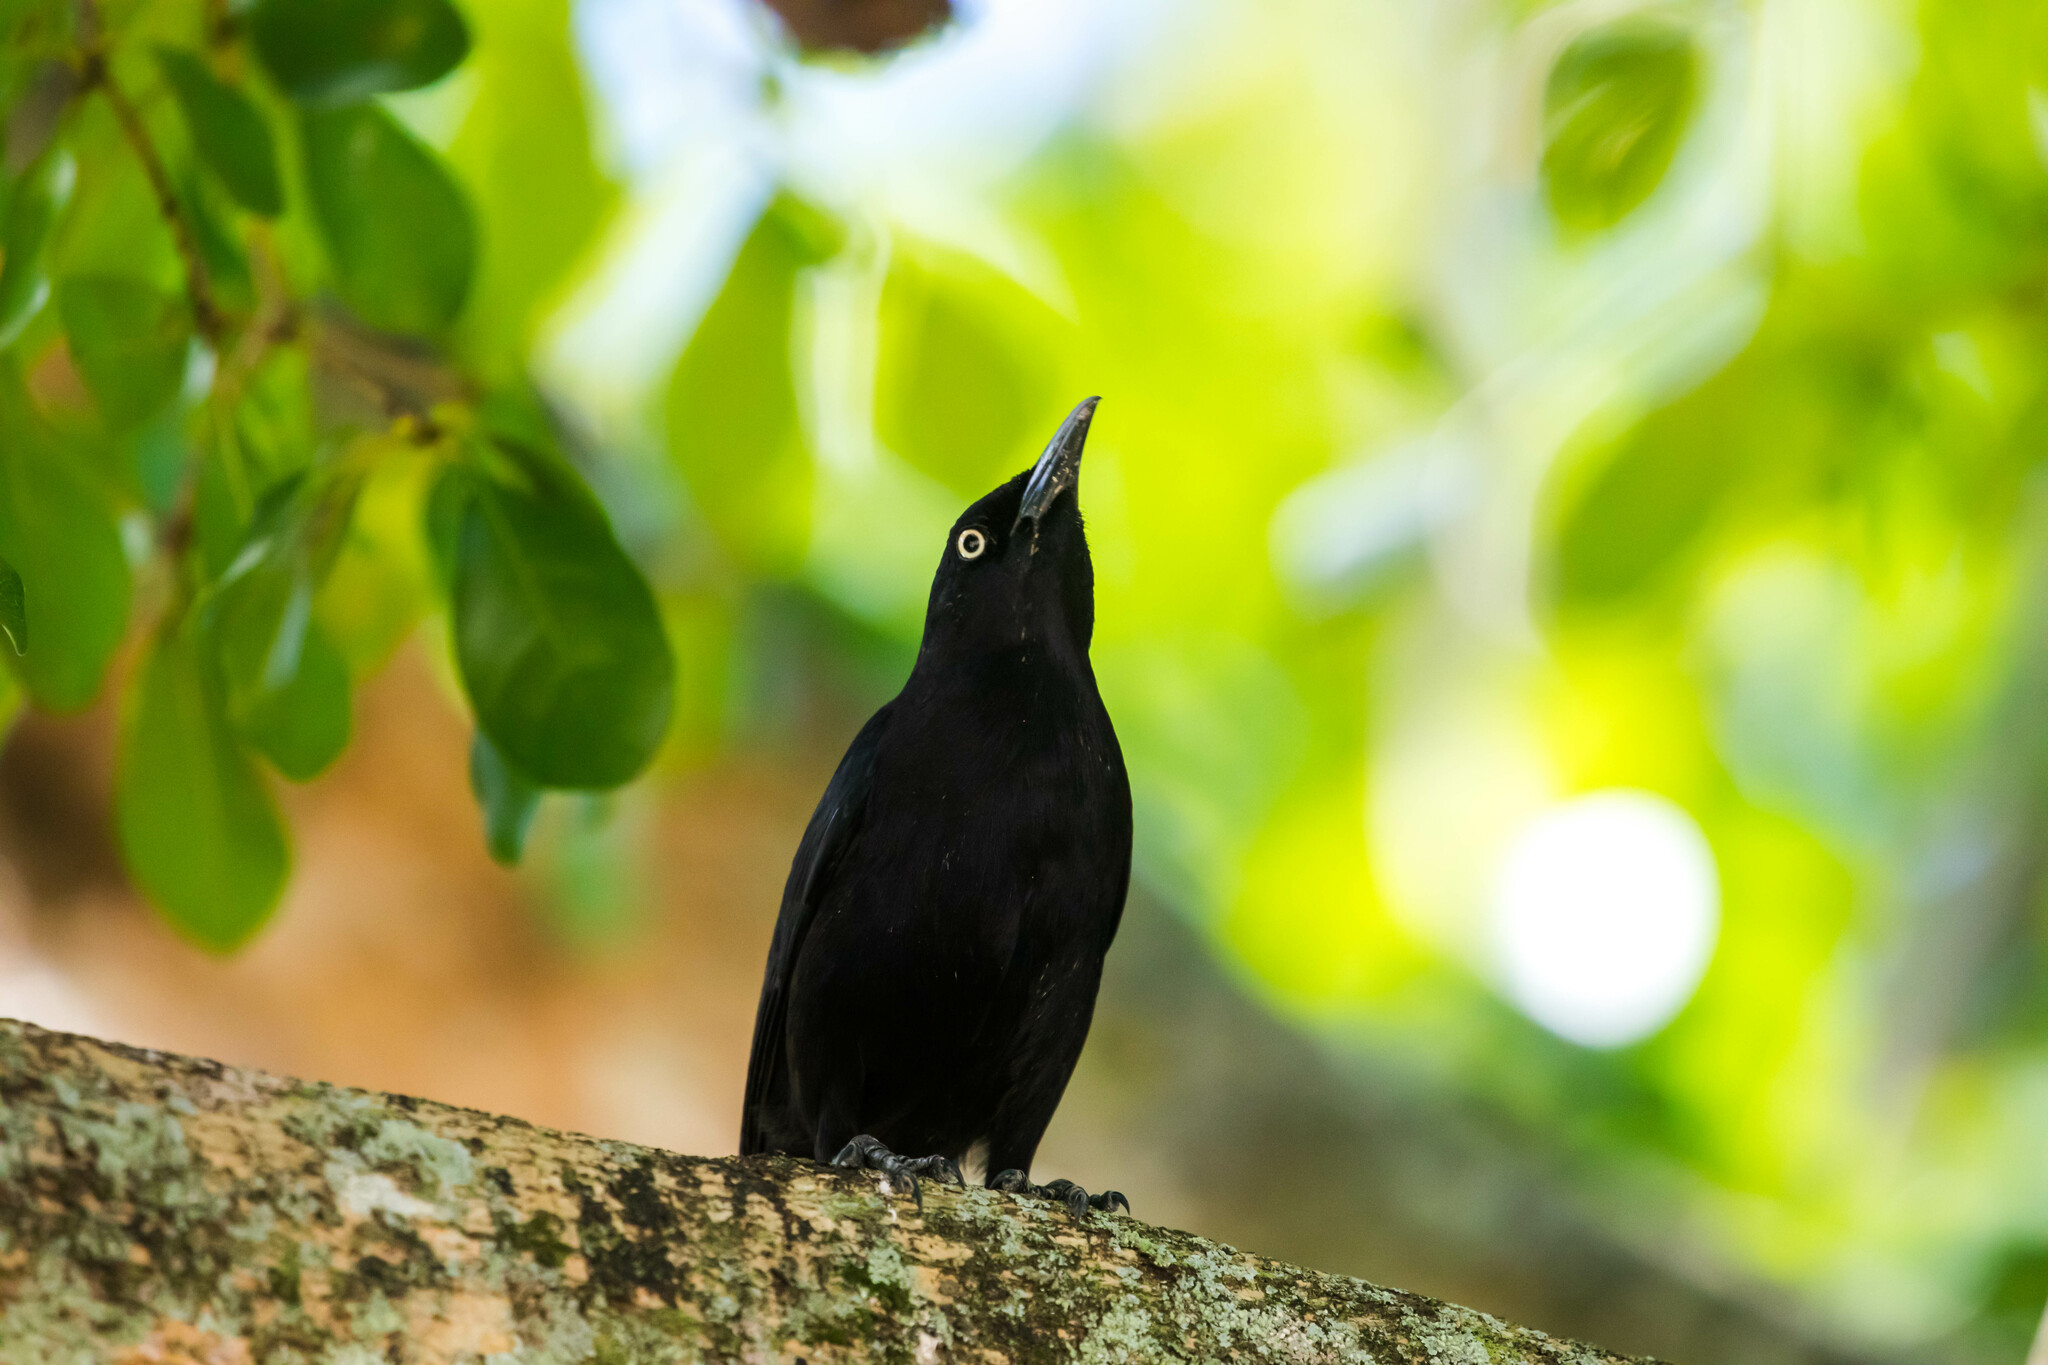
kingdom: Animalia
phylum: Chordata
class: Aves
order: Passeriformes
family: Icteridae
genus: Quiscalus
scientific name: Quiscalus lugubris
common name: Carib grackle
